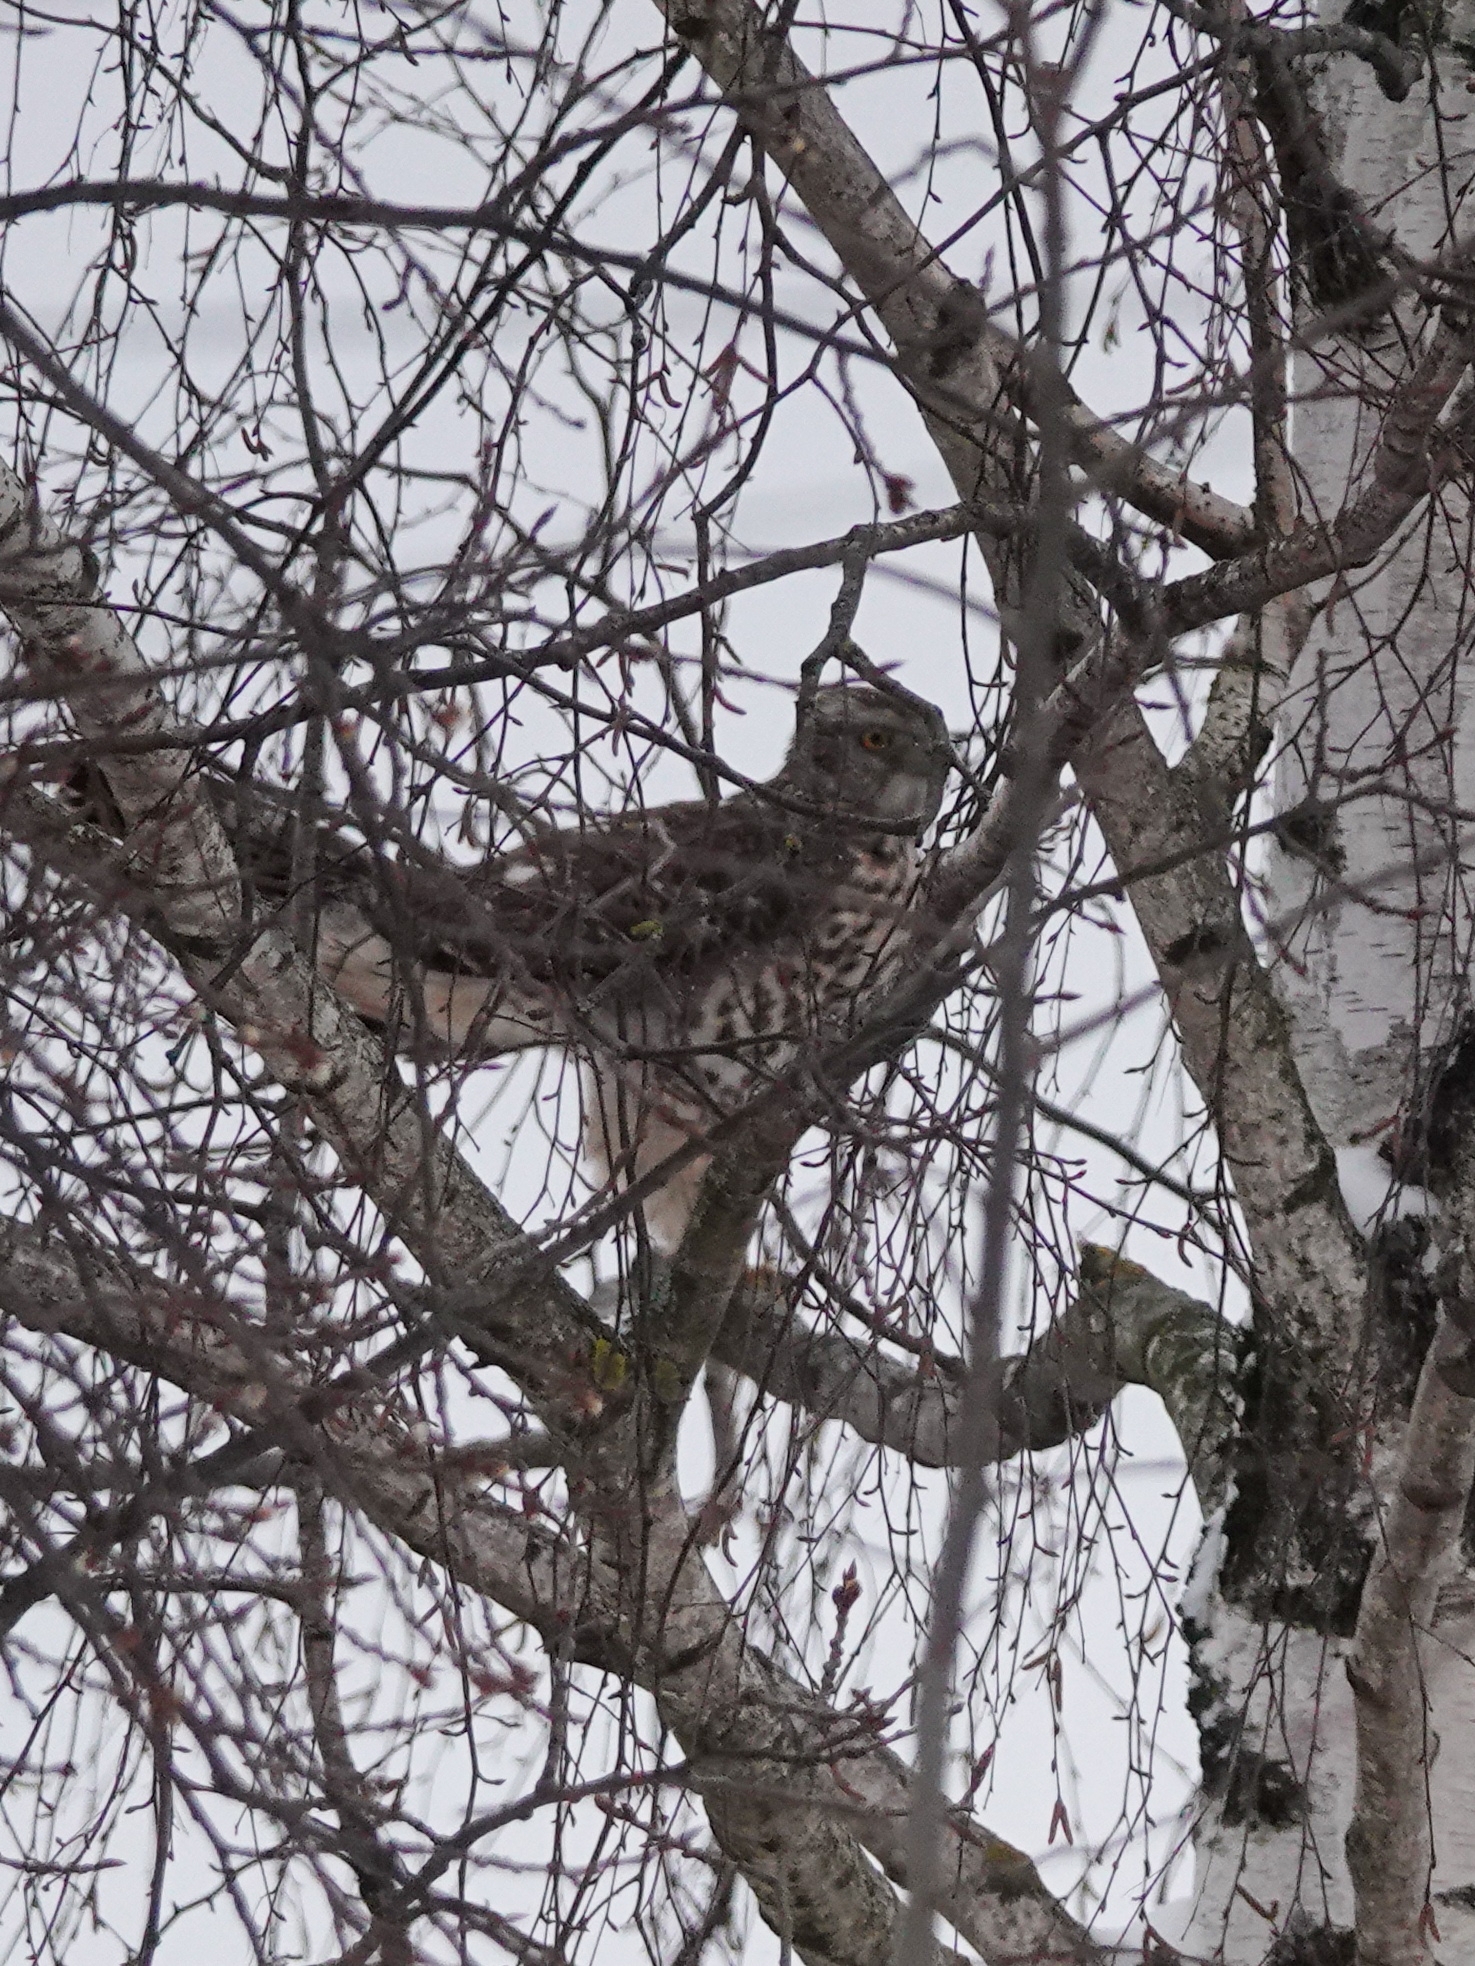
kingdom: Animalia
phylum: Chordata
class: Aves
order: Accipitriformes
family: Accipitridae
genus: Accipiter
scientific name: Accipiter gentilis
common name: Northern goshawk
